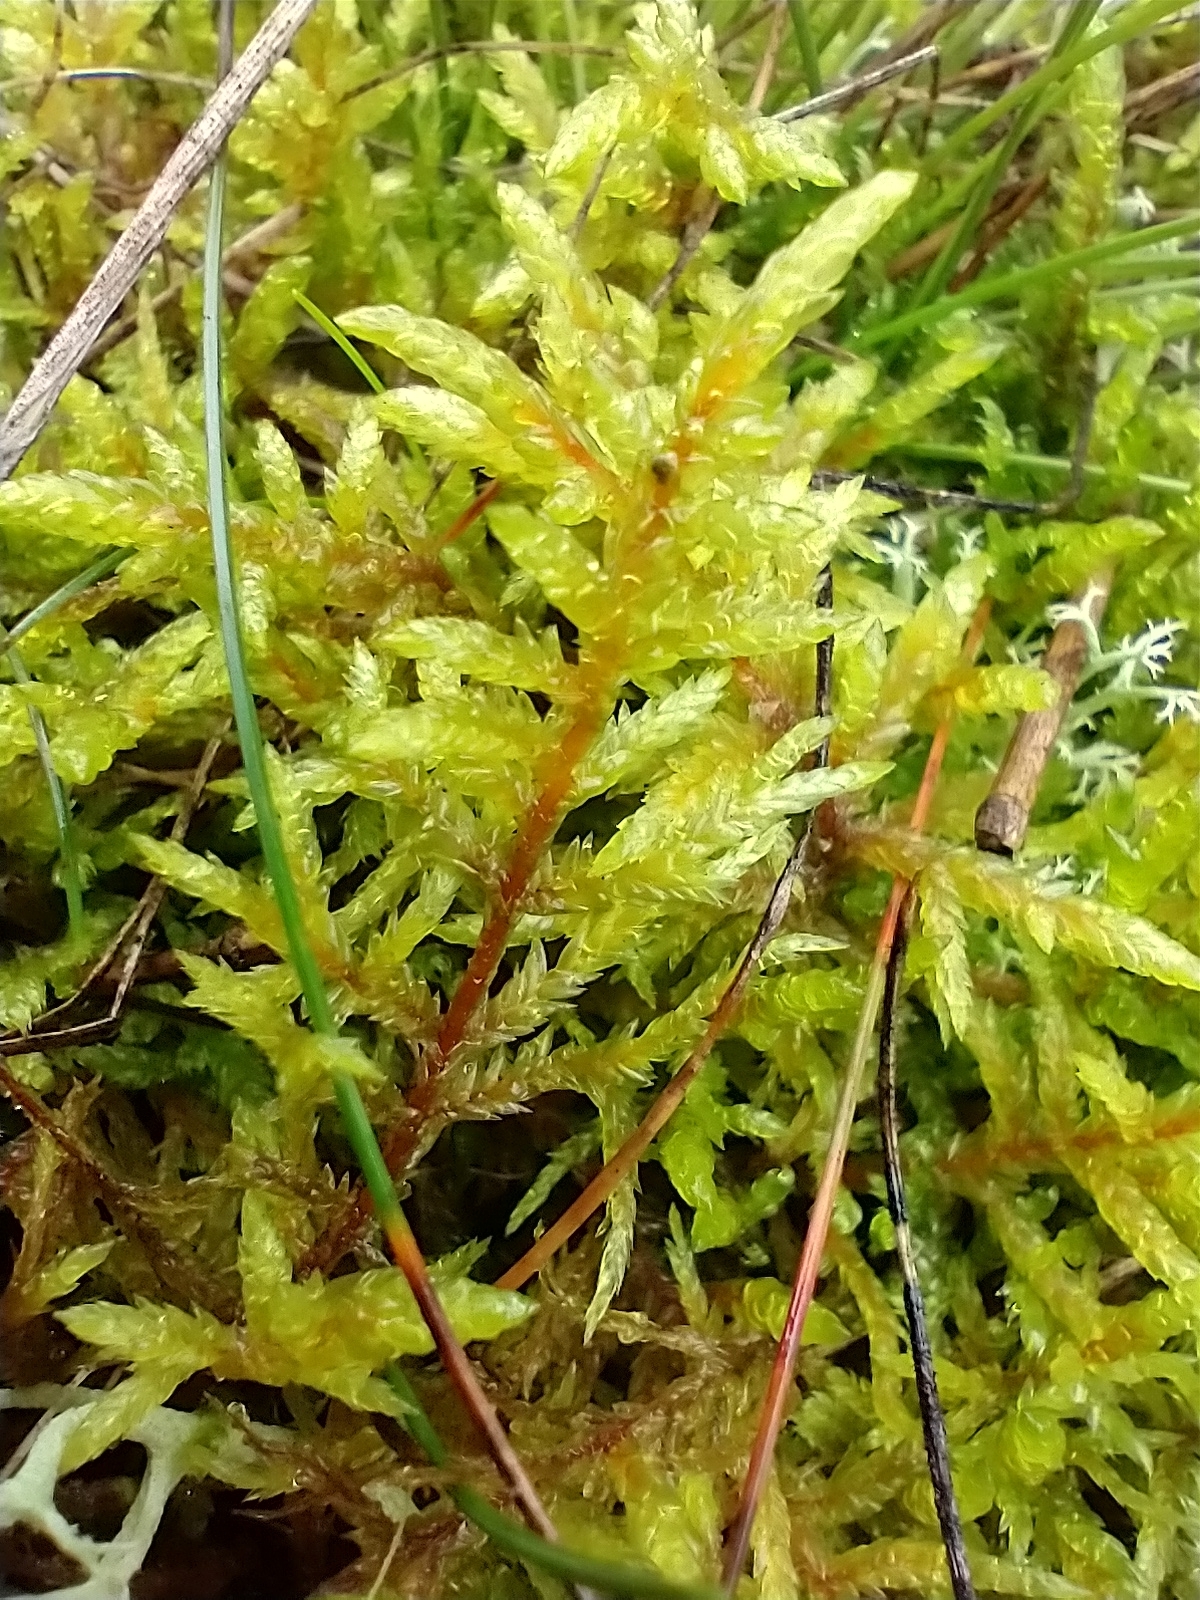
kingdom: Plantae
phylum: Bryophyta
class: Bryopsida
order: Hypnales
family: Hylocomiaceae
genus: Pleurozium
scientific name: Pleurozium schreberi
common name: Red-stemmed feather moss
